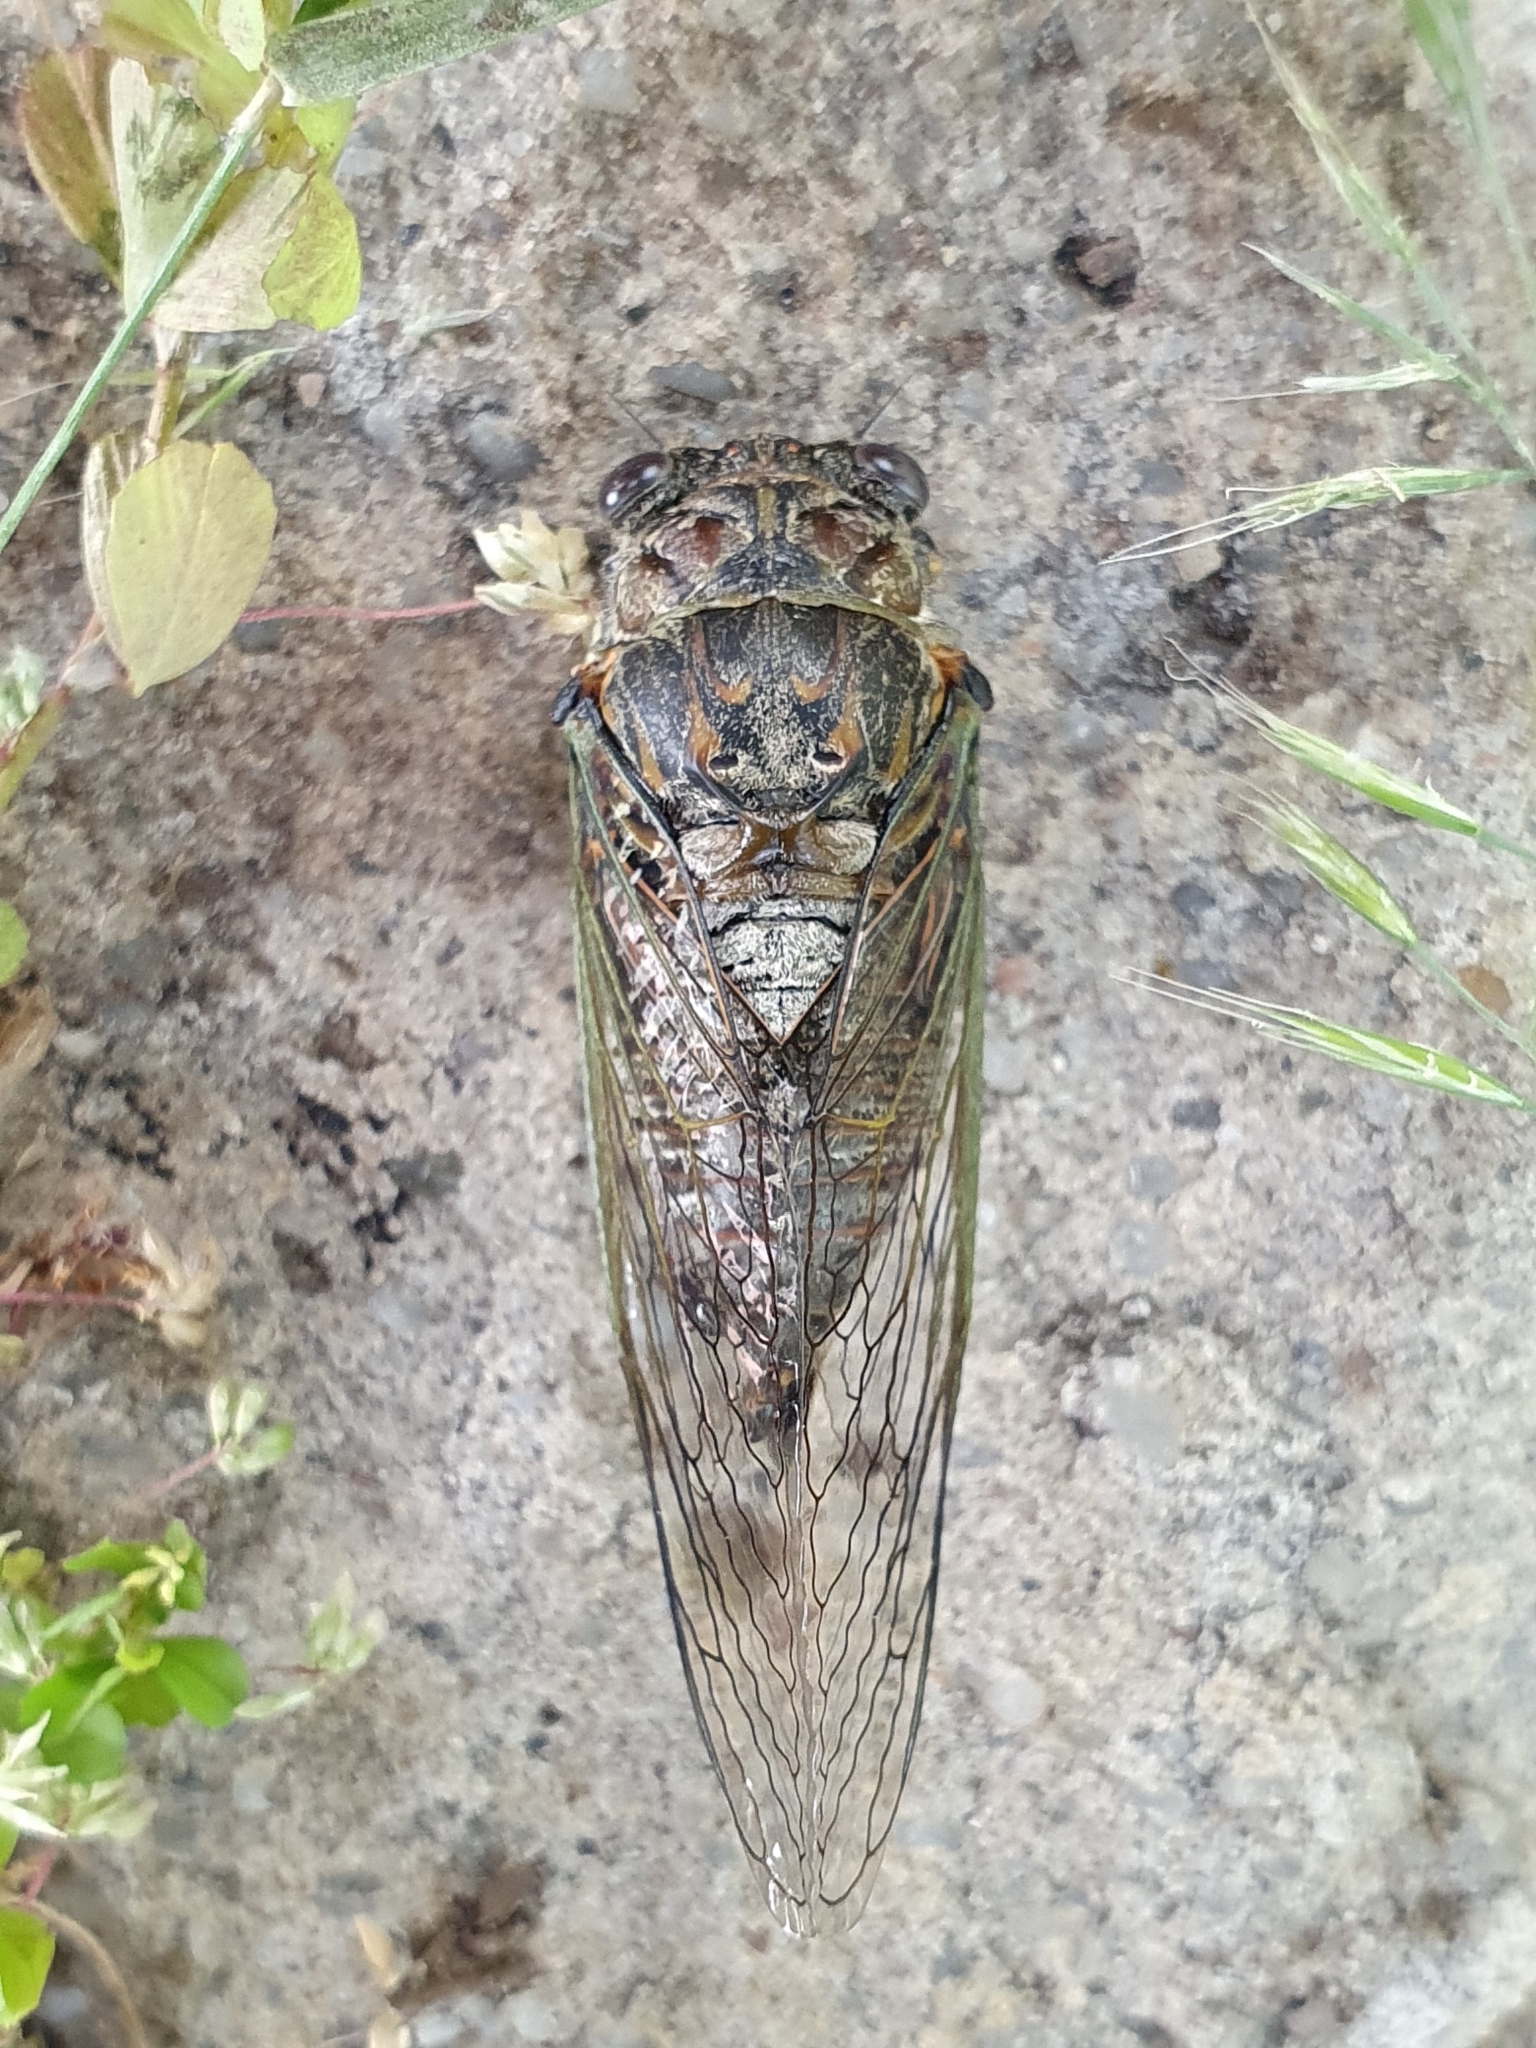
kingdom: Animalia
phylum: Arthropoda
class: Insecta
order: Hemiptera
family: Cicadidae
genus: Tibicina
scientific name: Tibicina maldesi
